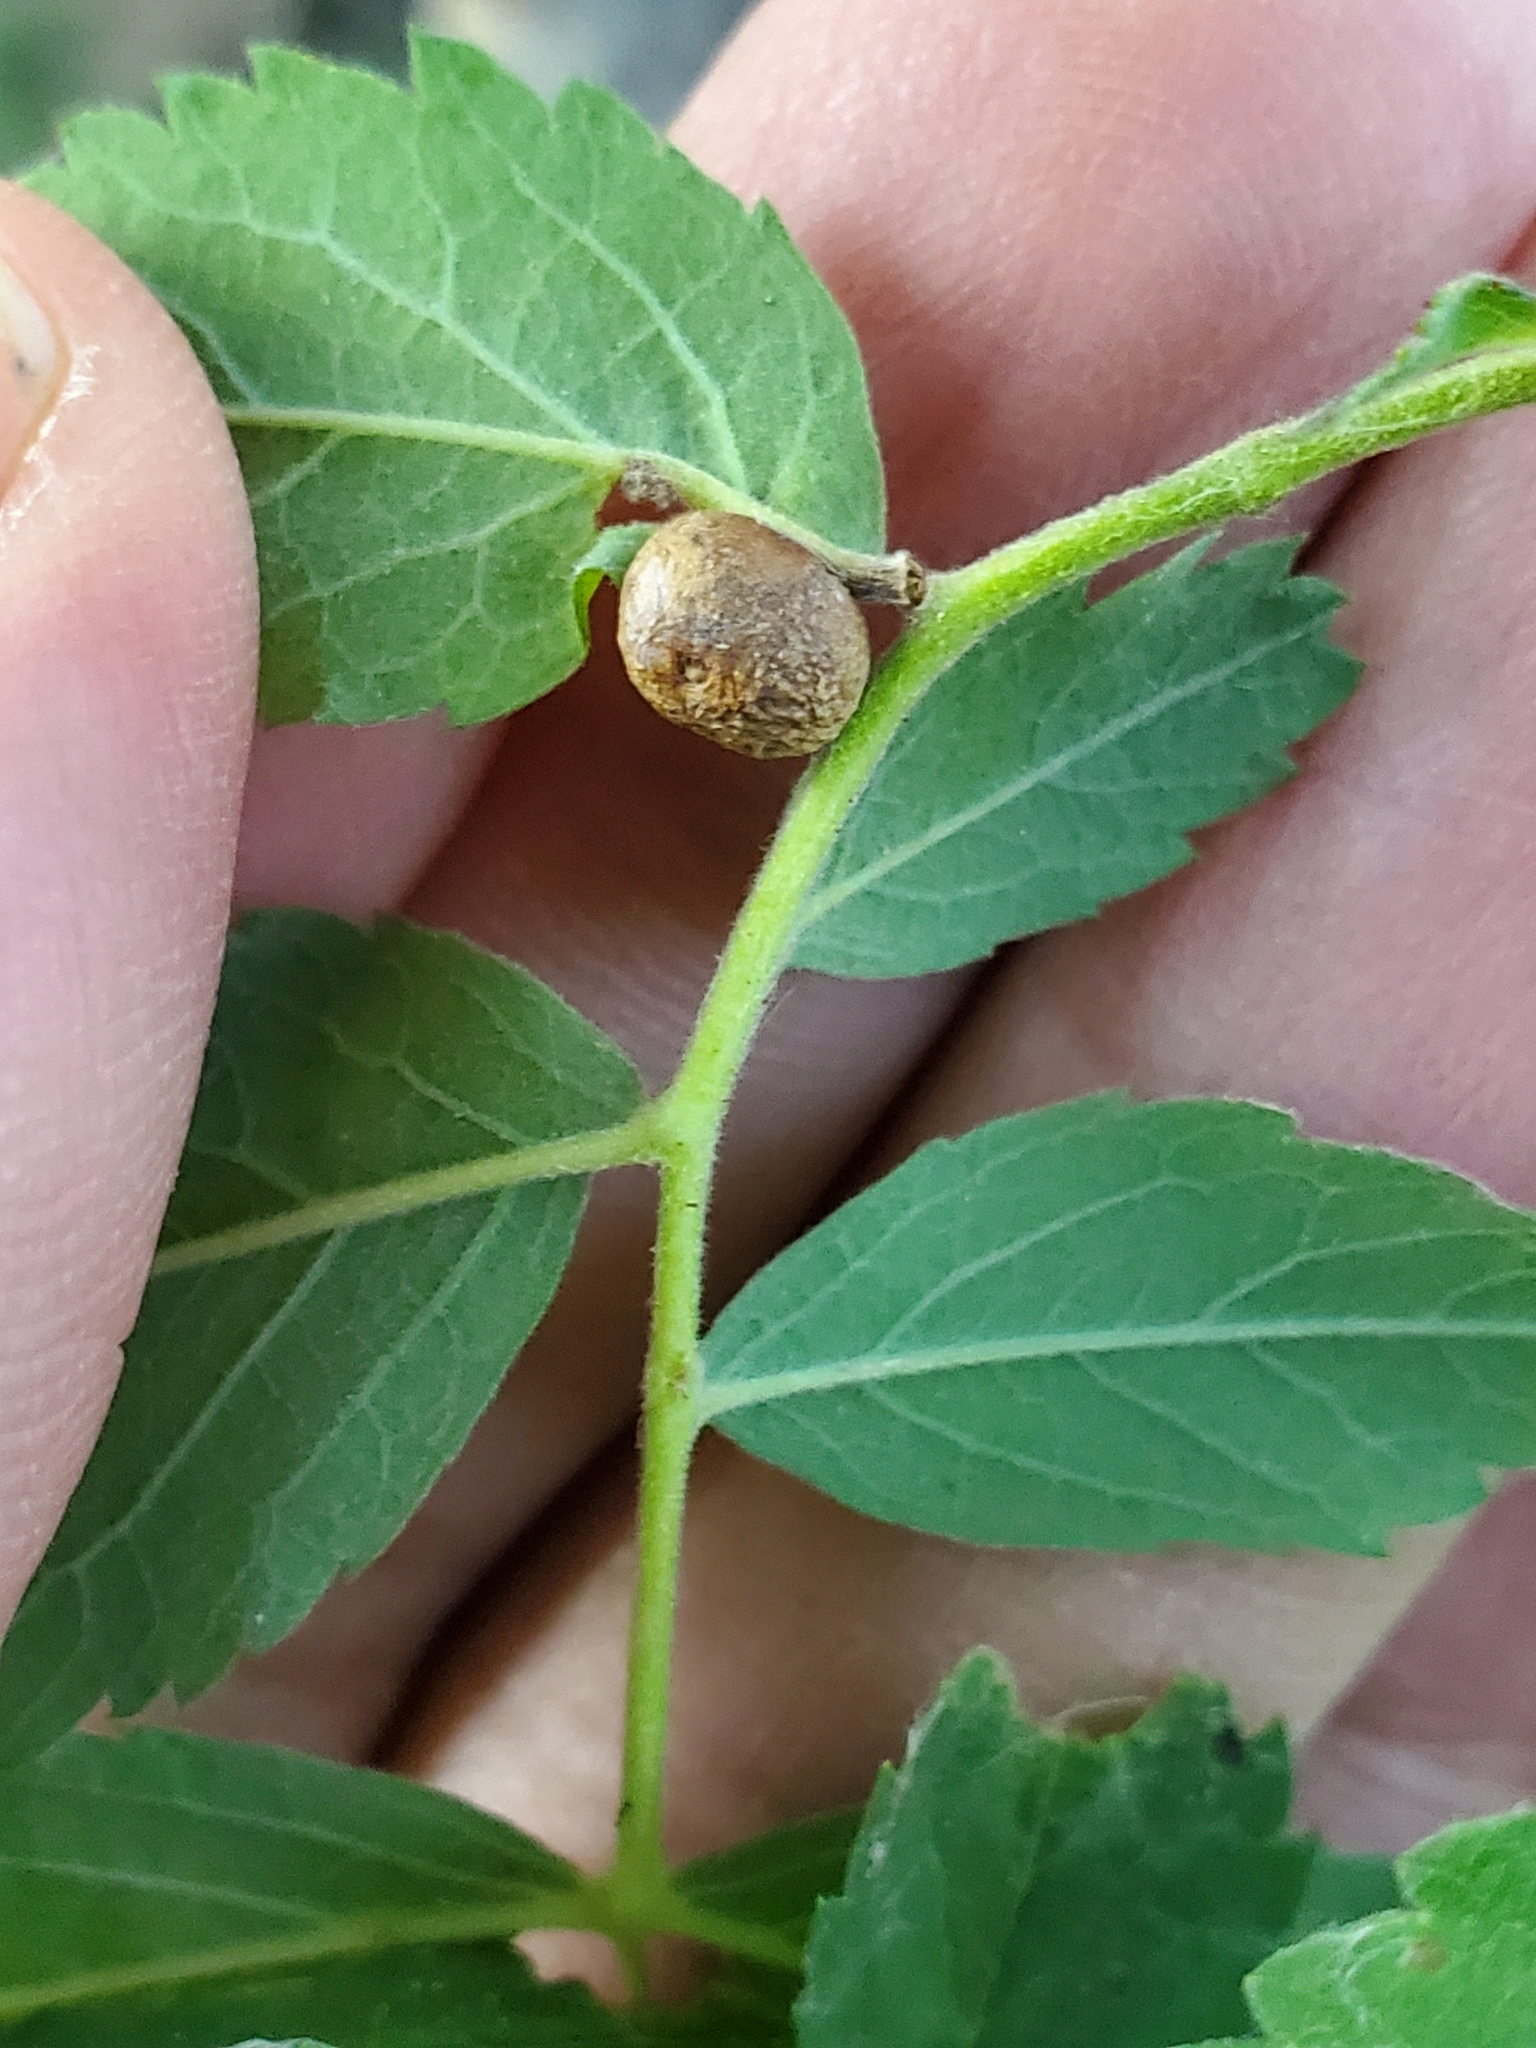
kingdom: Animalia
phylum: Arthropoda
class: Insecta
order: Hymenoptera
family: Cynipidae
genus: Diplolepis
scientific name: Diplolepis nebulosa
